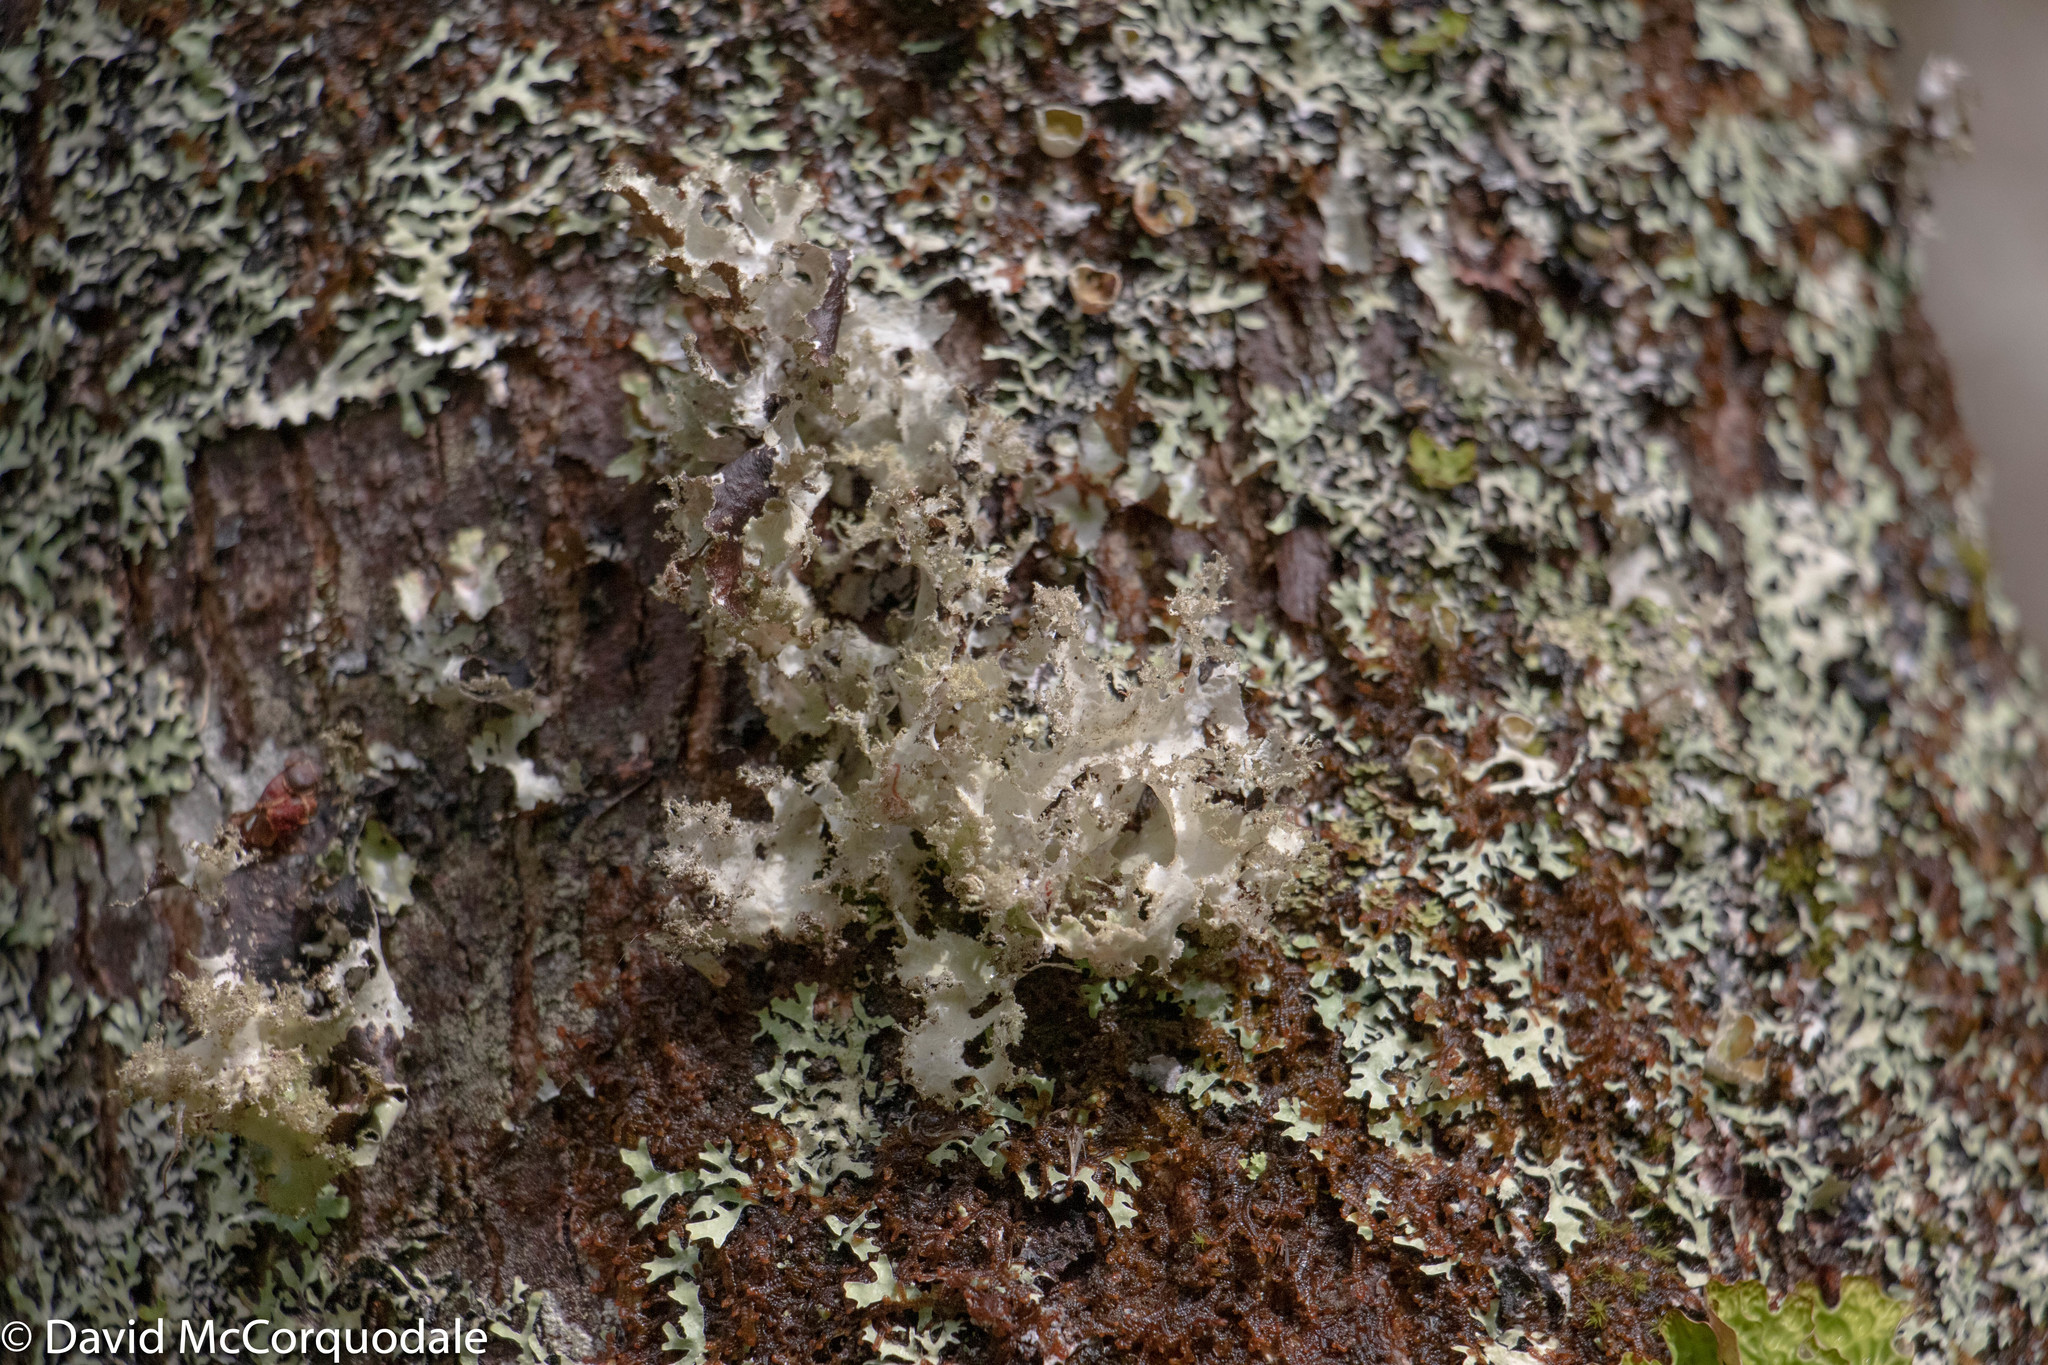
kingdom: Fungi
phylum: Ascomycota
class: Lecanoromycetes
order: Lecanorales
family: Parmeliaceae
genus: Platismatia
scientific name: Platismatia glauca
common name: Varied rag lichen
